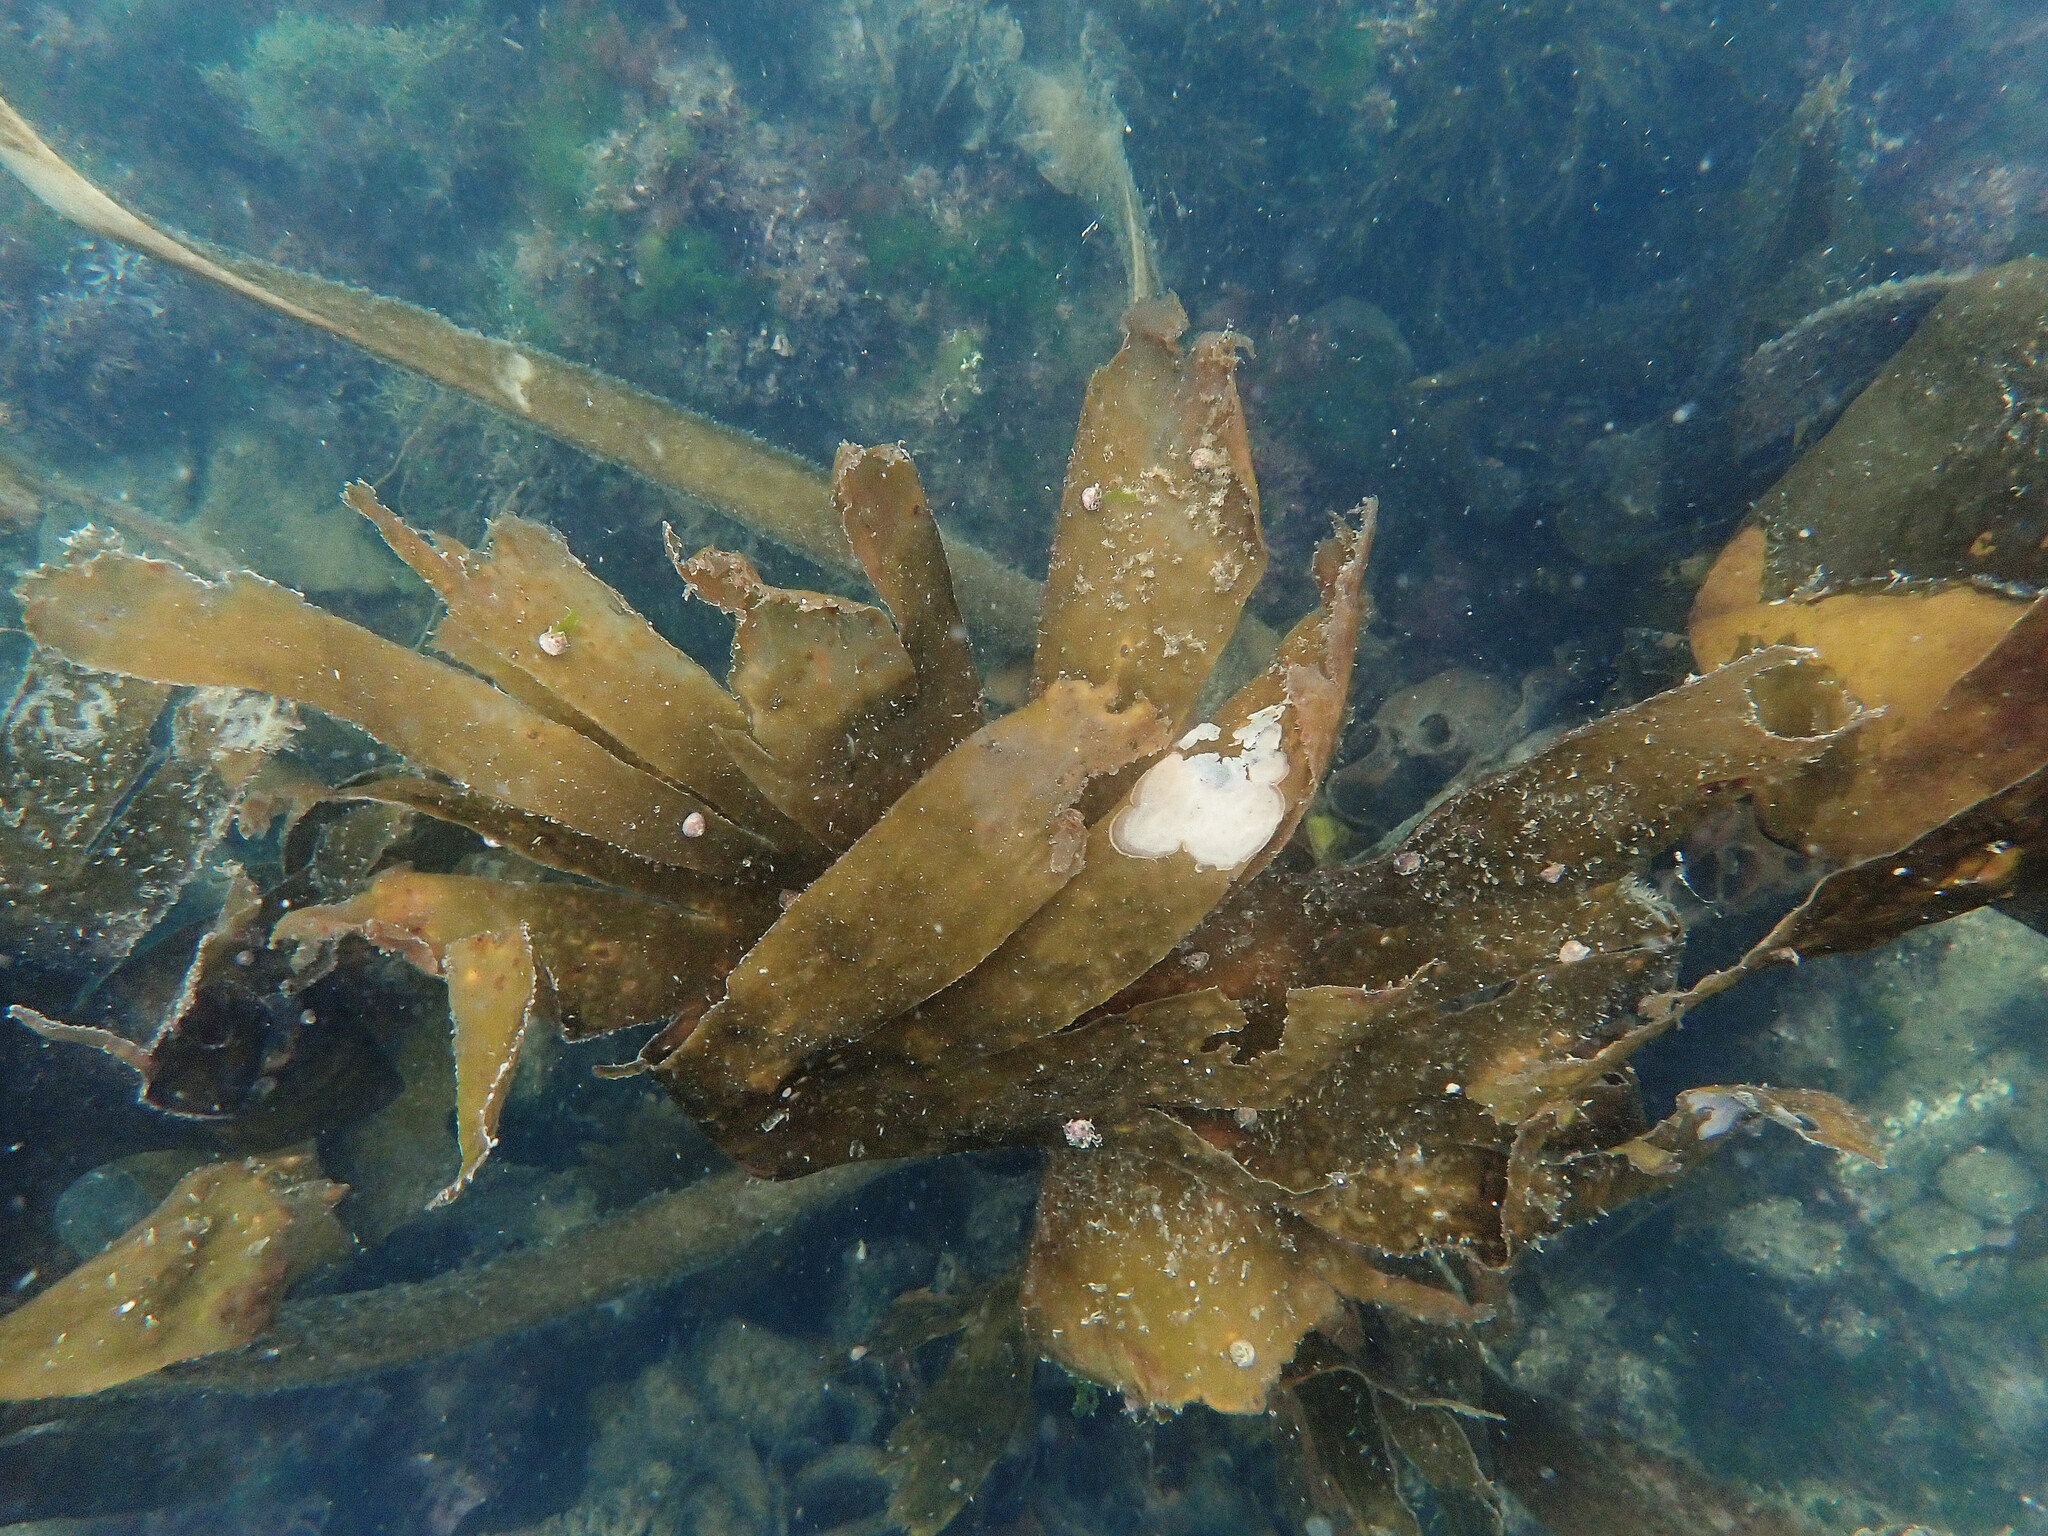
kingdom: Chromista
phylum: Ochrophyta
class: Phaeophyceae
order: Tilopteridales
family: Phyllariaceae
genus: Saccorhiza
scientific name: Saccorhiza polyschides
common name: Furbelows
